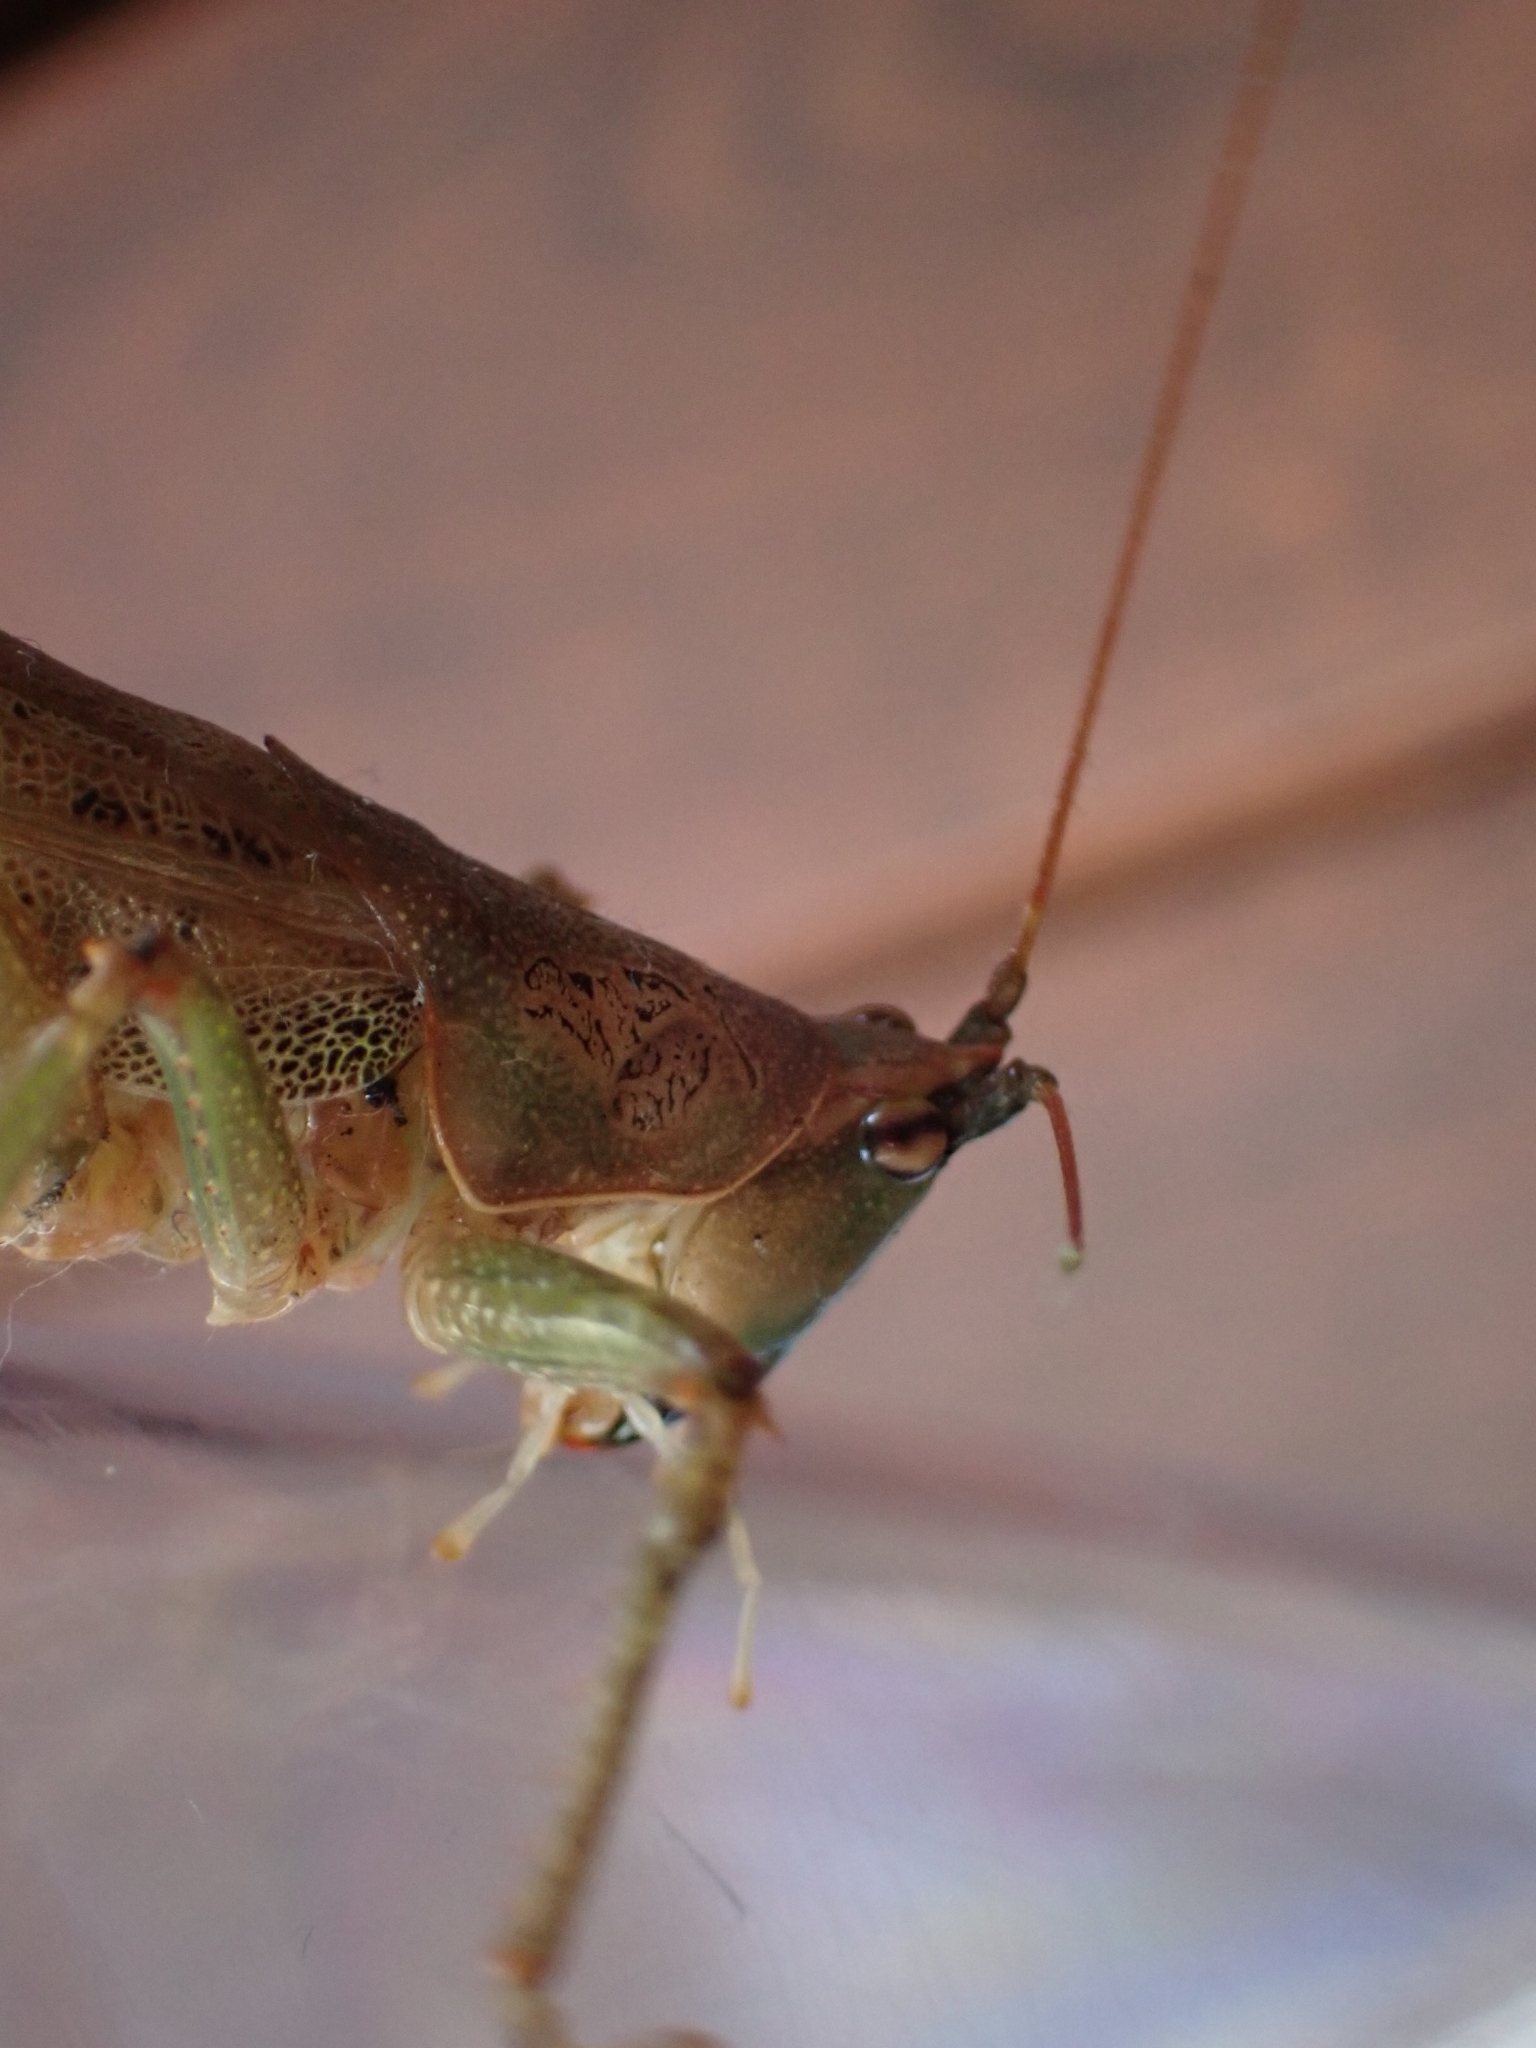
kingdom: Animalia
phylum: Arthropoda
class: Insecta
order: Orthoptera
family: Tettigoniidae
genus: Austrosalomona
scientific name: Austrosalomona falcata
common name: Olive-green coastal katydid
